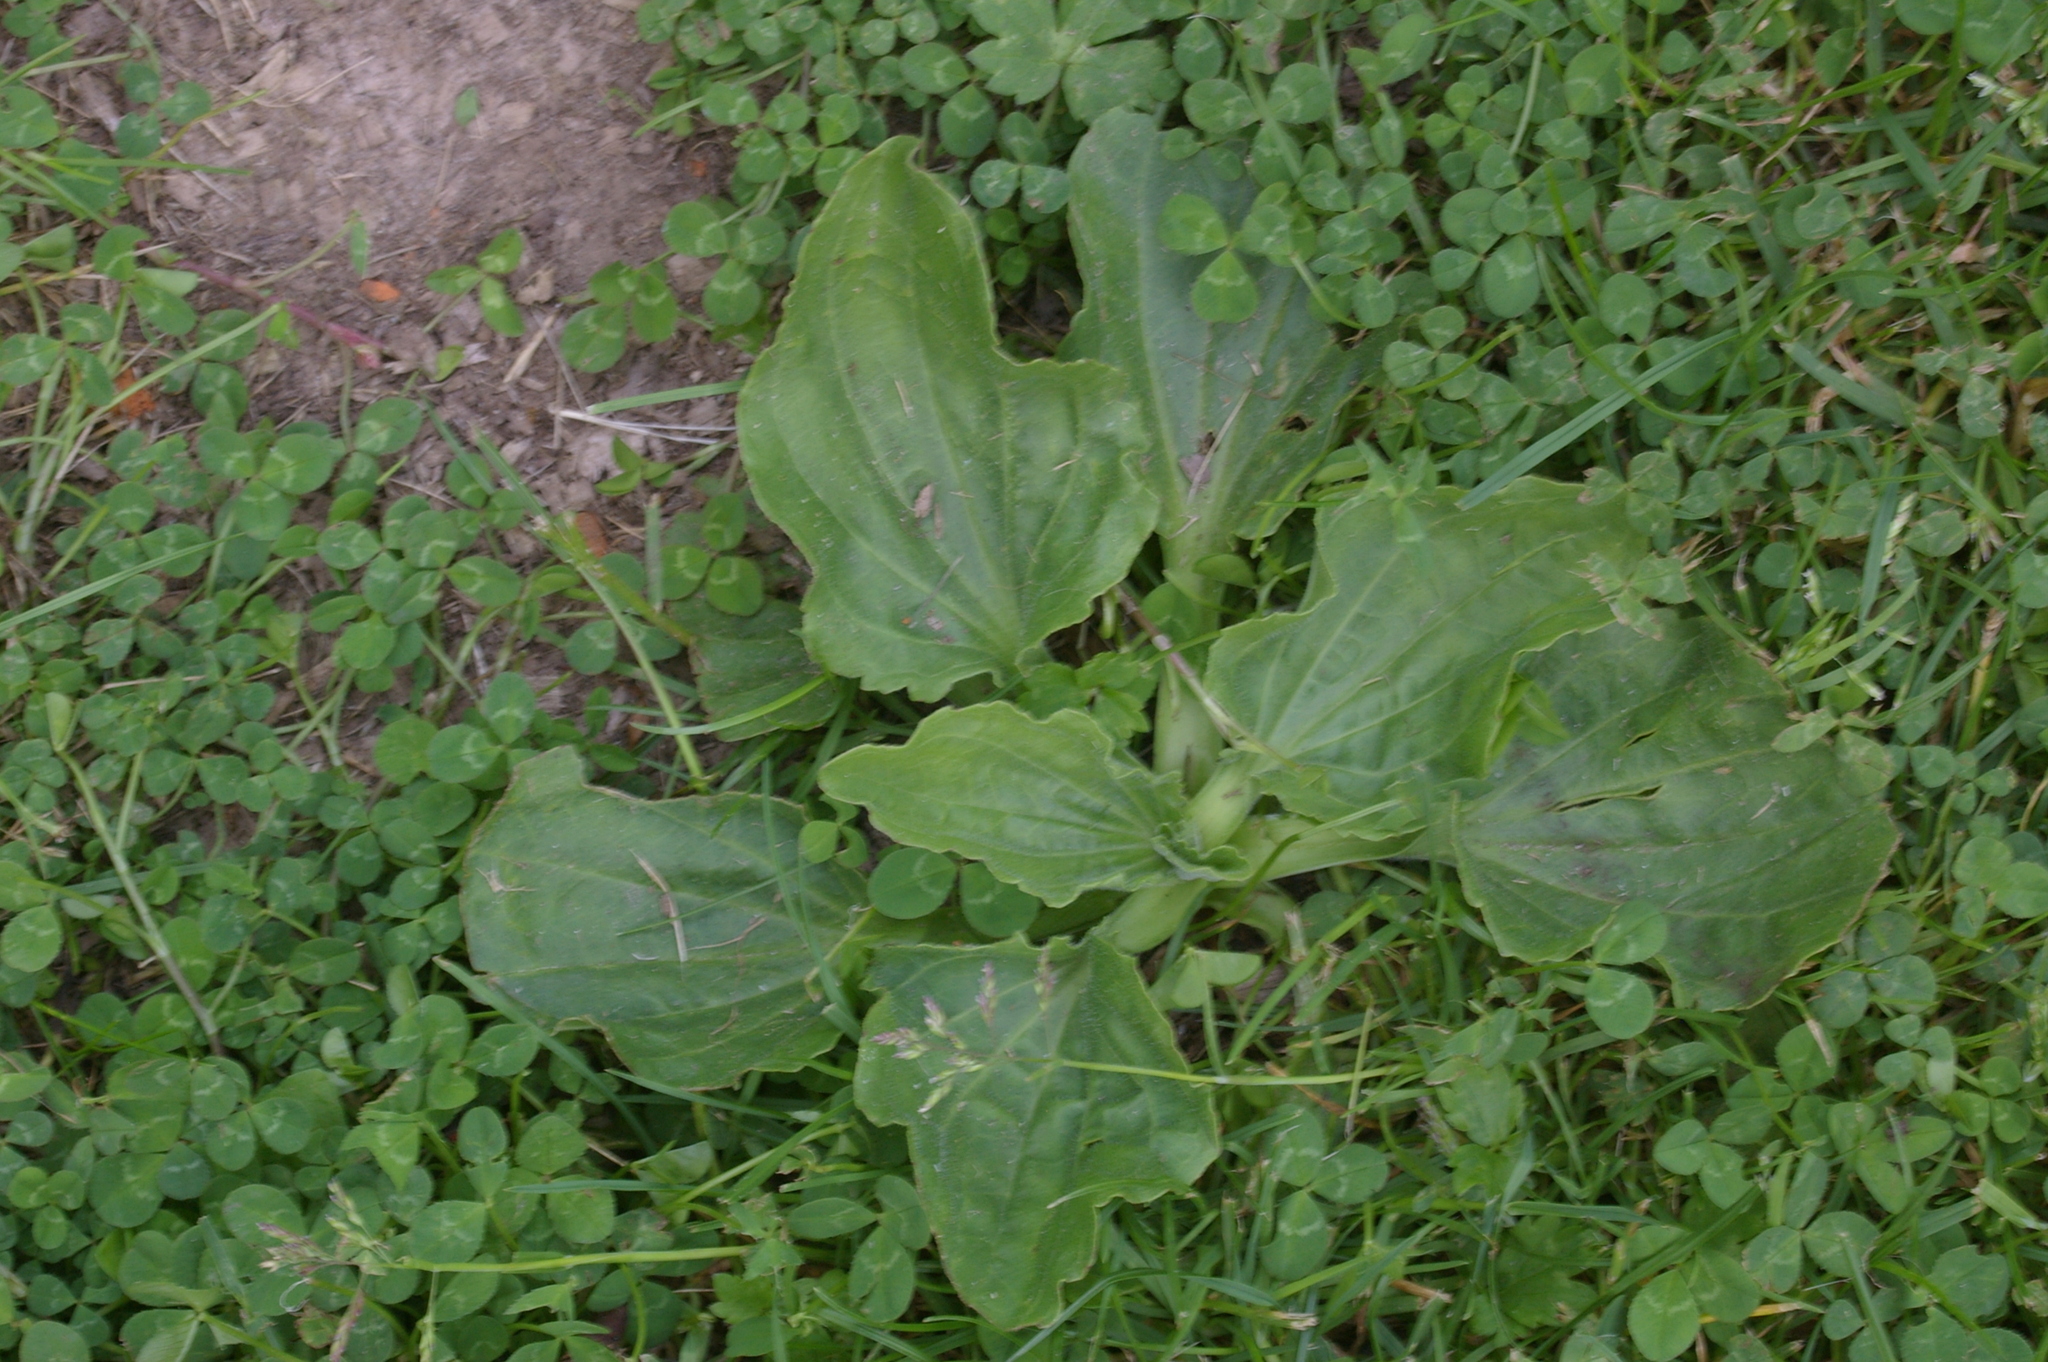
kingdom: Plantae
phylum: Tracheophyta
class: Magnoliopsida
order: Lamiales
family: Plantaginaceae
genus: Plantago
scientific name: Plantago major
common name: Common plantain
